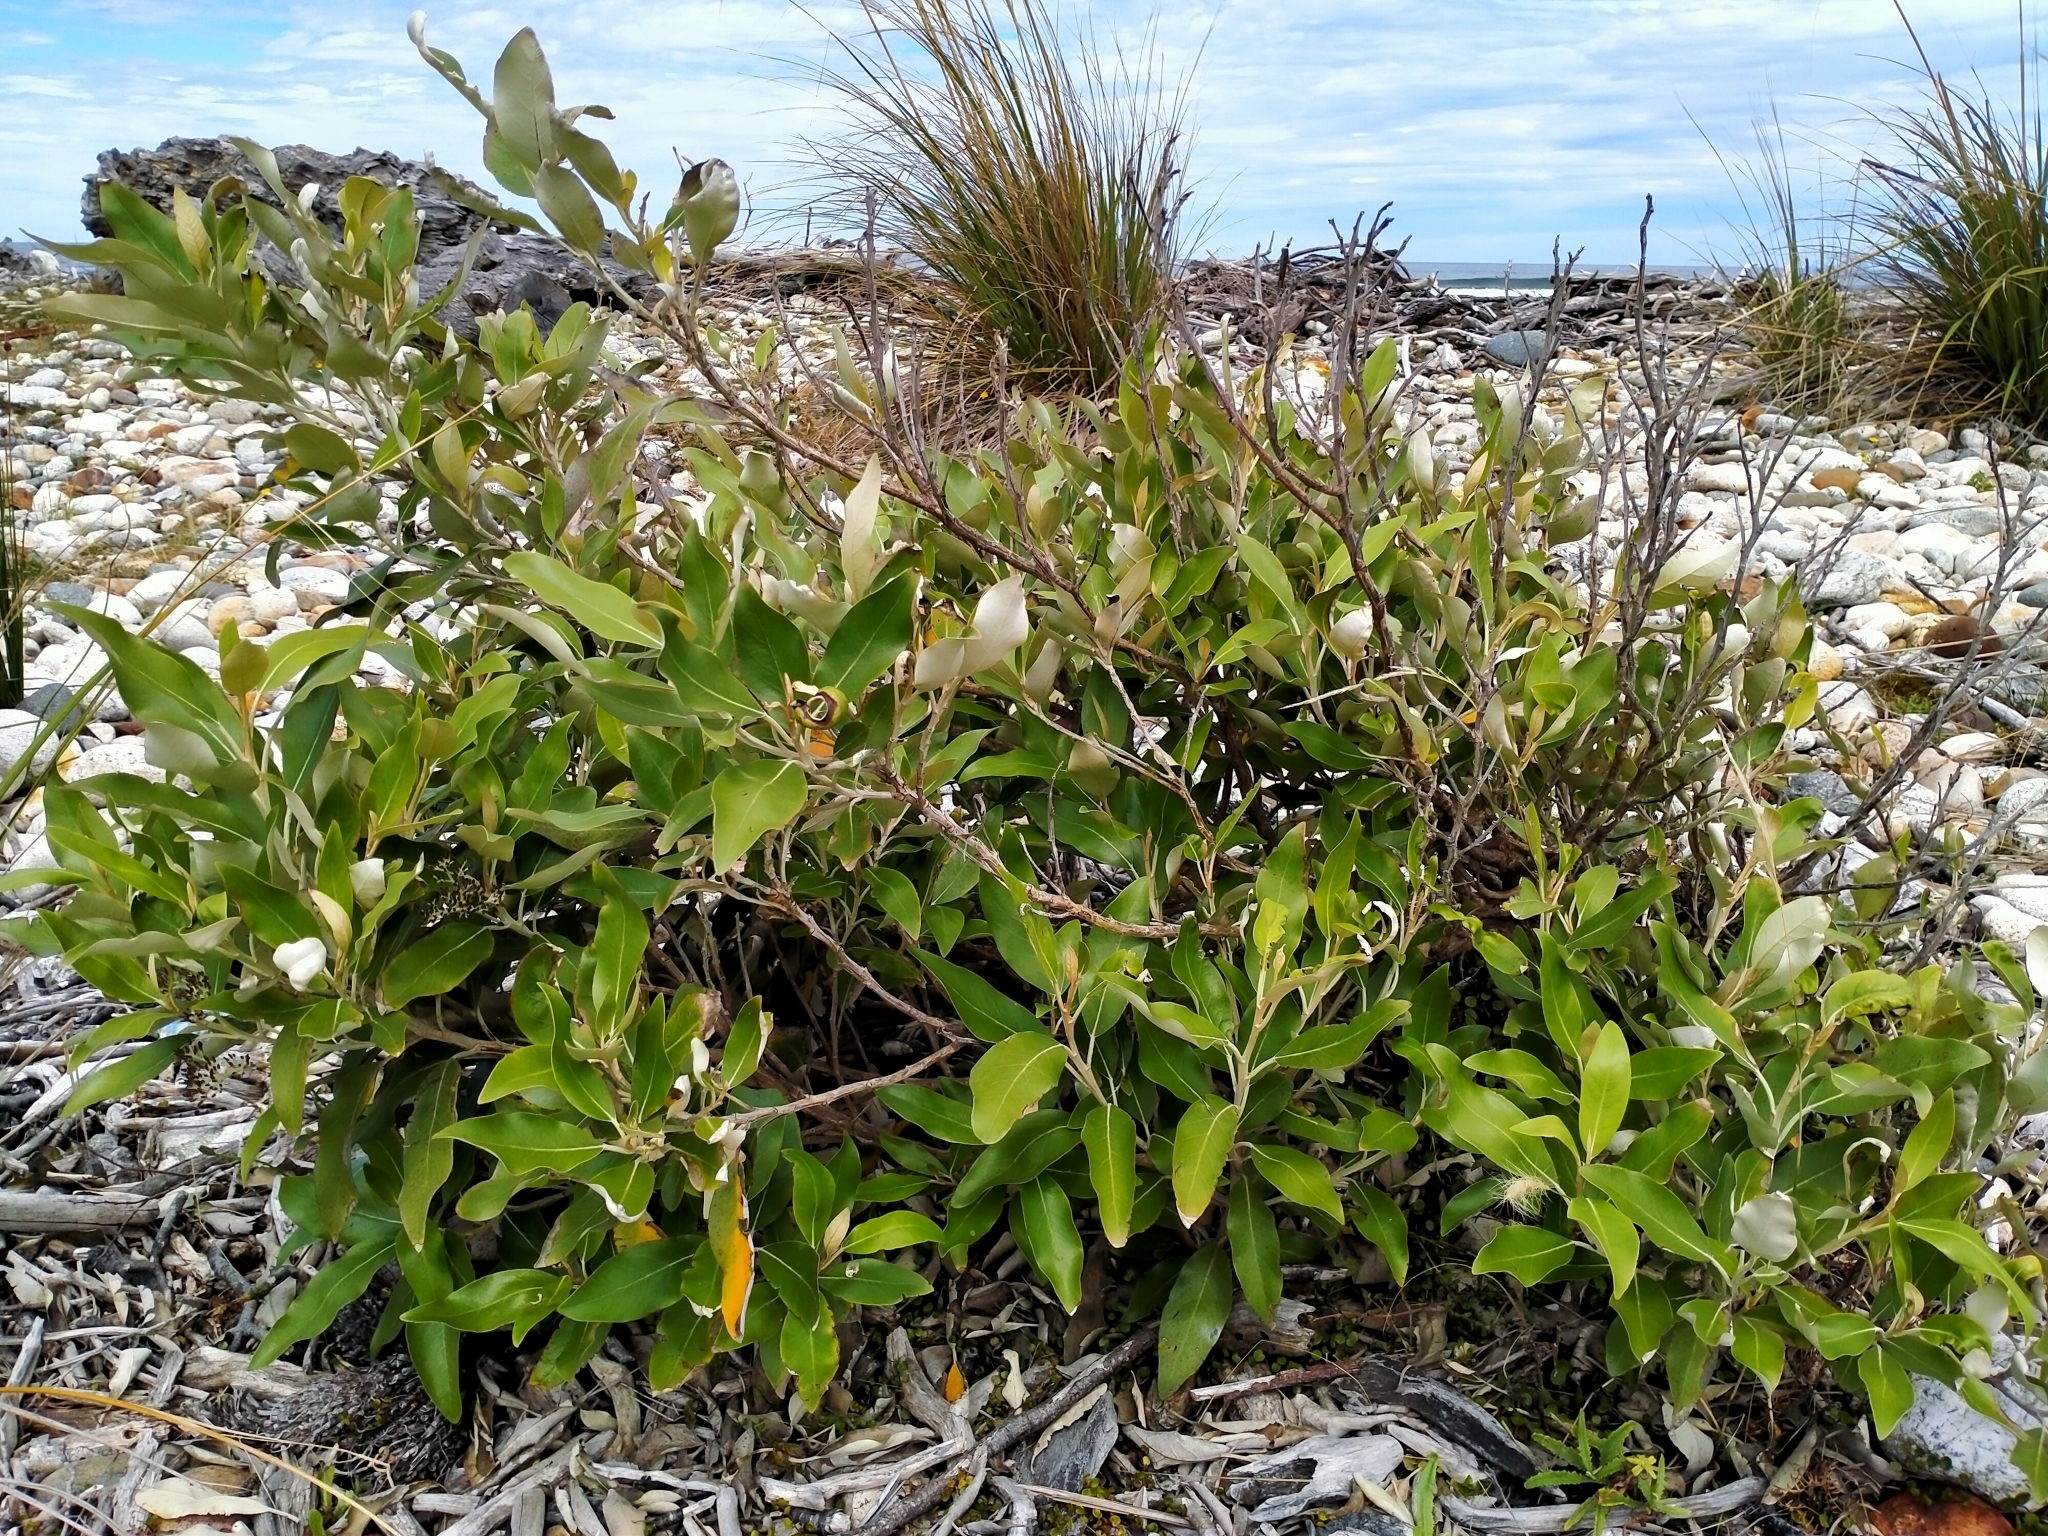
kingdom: Plantae
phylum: Tracheophyta
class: Magnoliopsida
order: Asterales
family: Asteraceae
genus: Olearia
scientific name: Olearia avicenniifolia
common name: Mangrove-leaf daisybush
